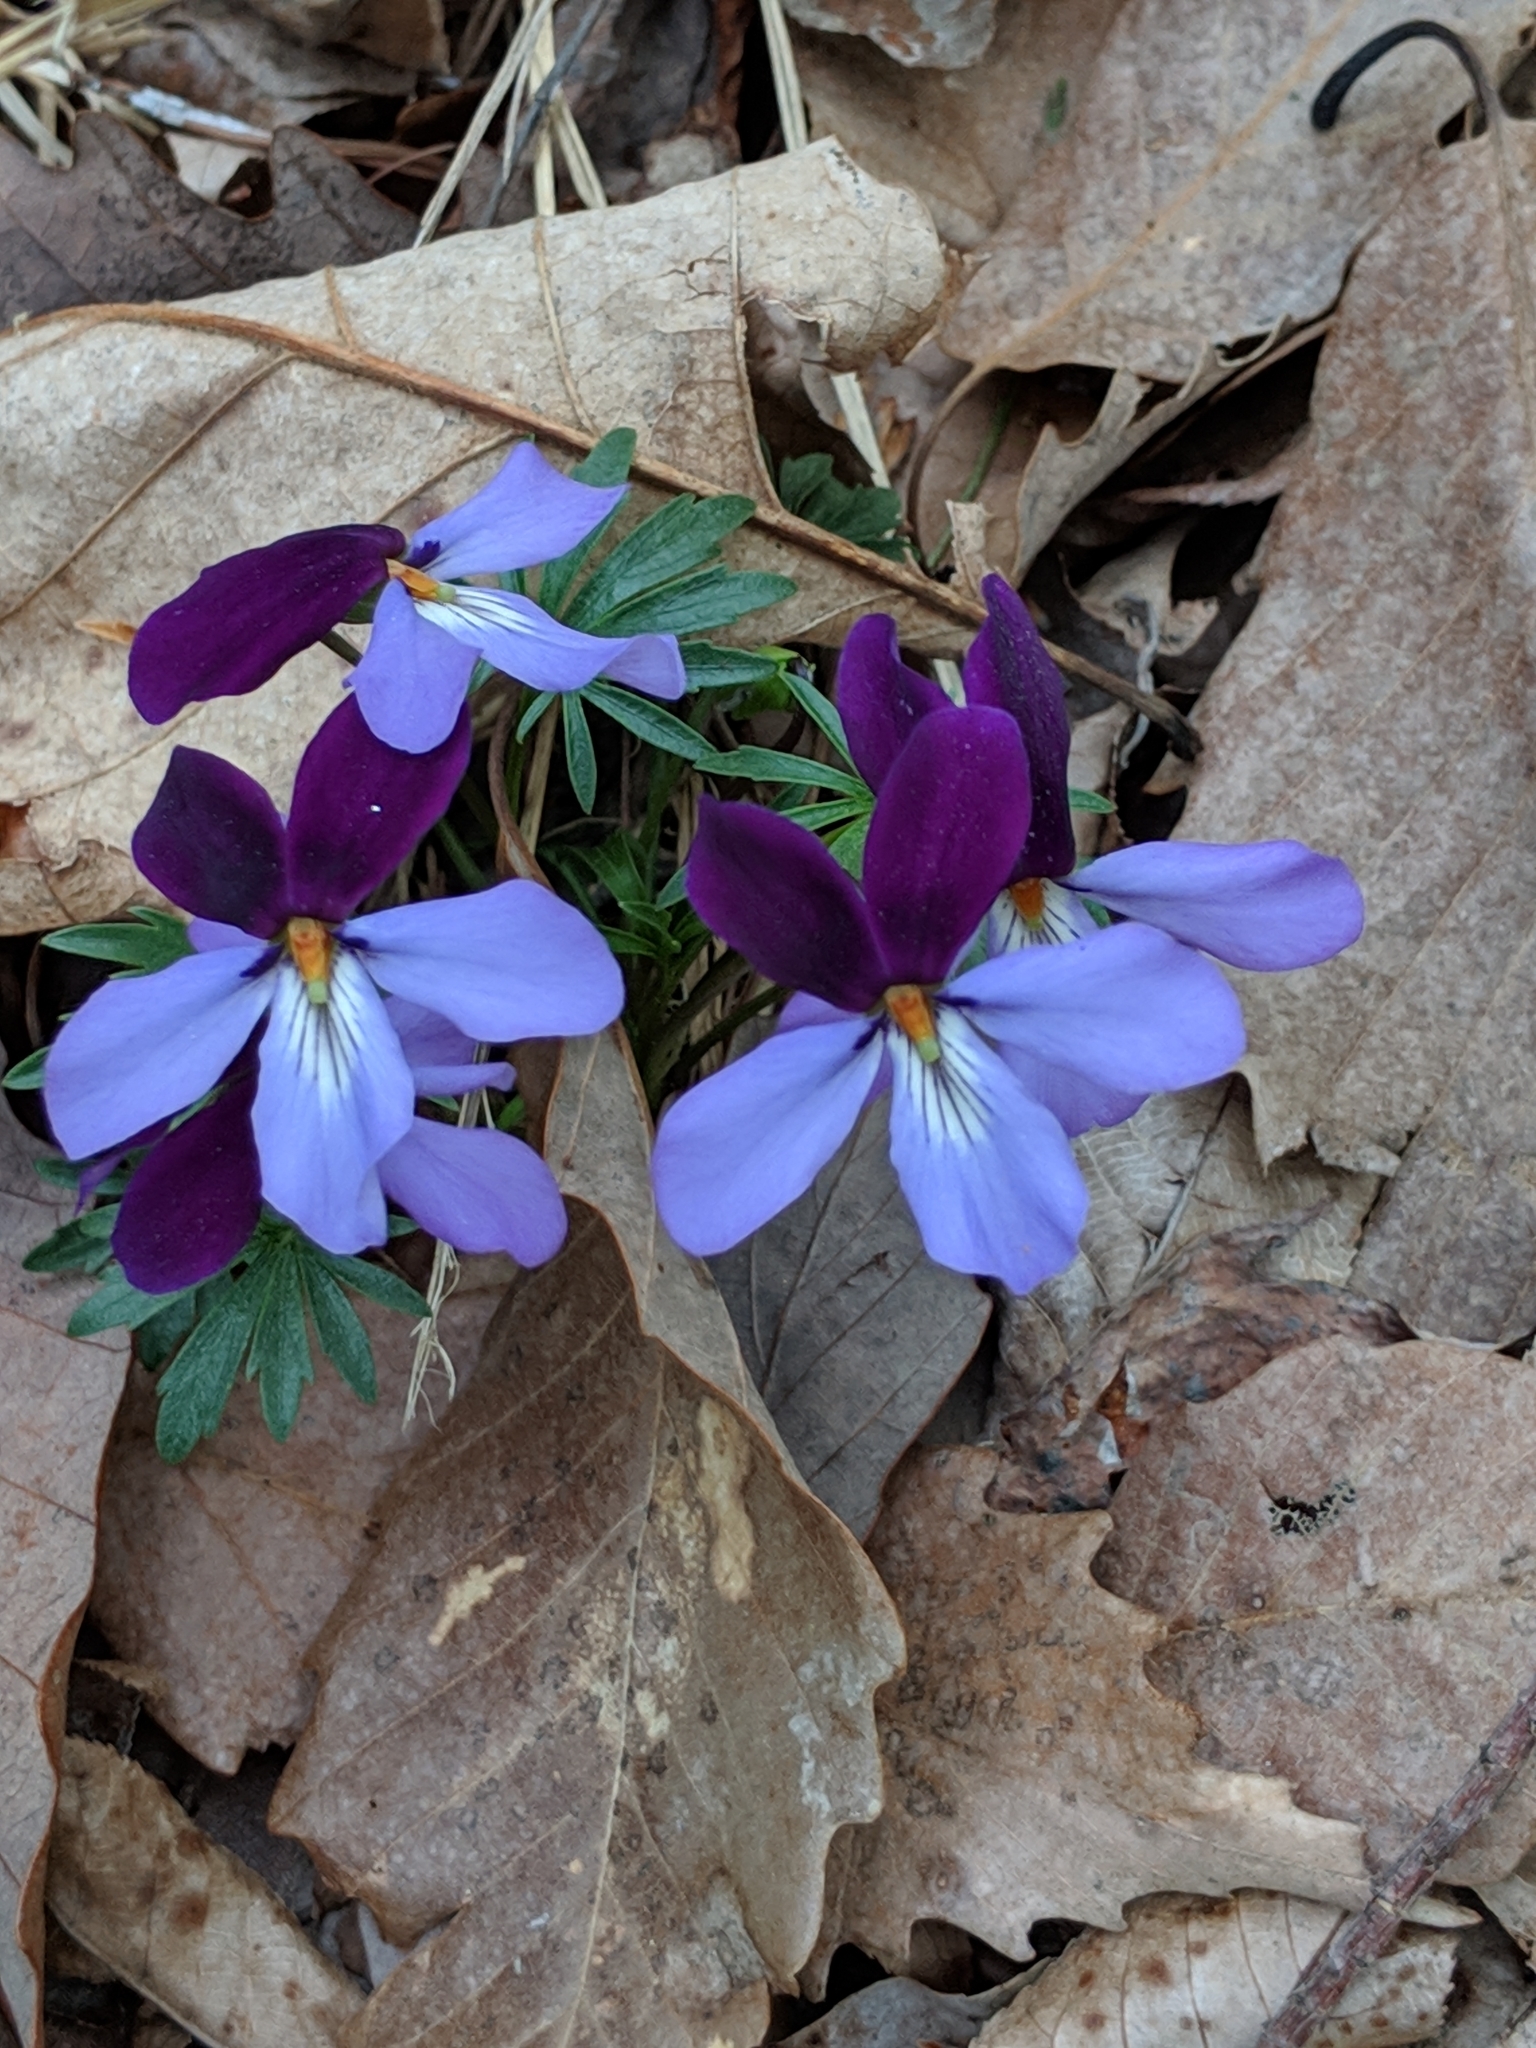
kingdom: Plantae
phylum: Tracheophyta
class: Magnoliopsida
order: Malpighiales
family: Violaceae
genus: Viola
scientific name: Viola pedata
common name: Pansy violet
